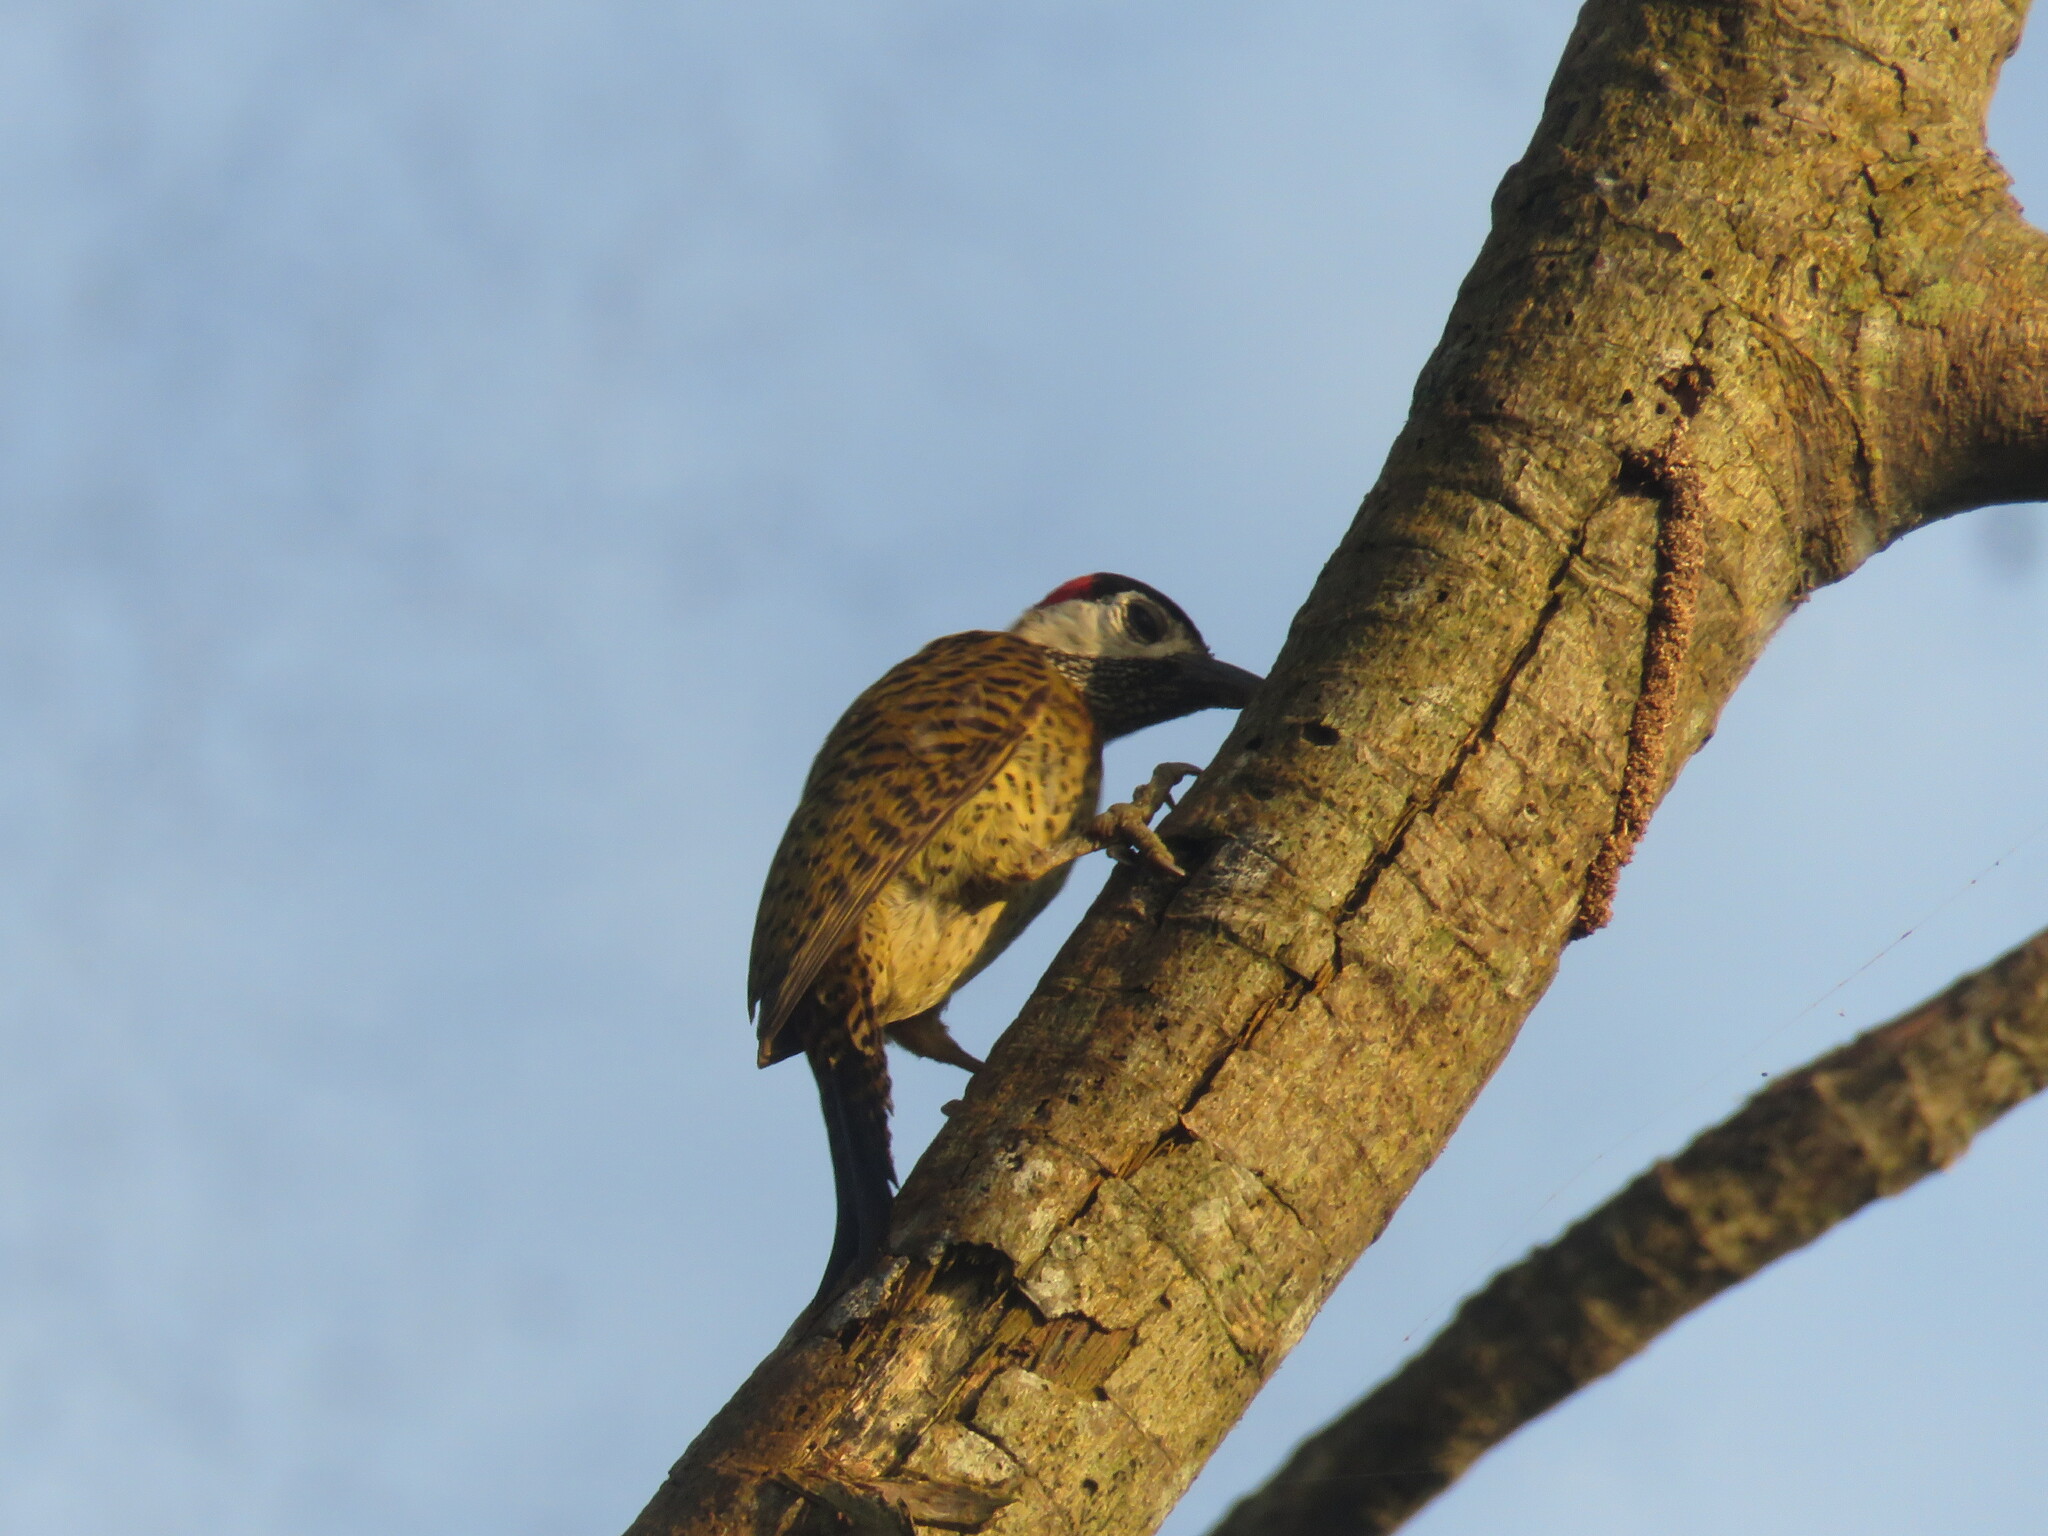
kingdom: Animalia
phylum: Chordata
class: Aves
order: Piciformes
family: Picidae
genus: Colaptes
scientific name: Colaptes punctigula
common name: Spot-breasted woodpecker
